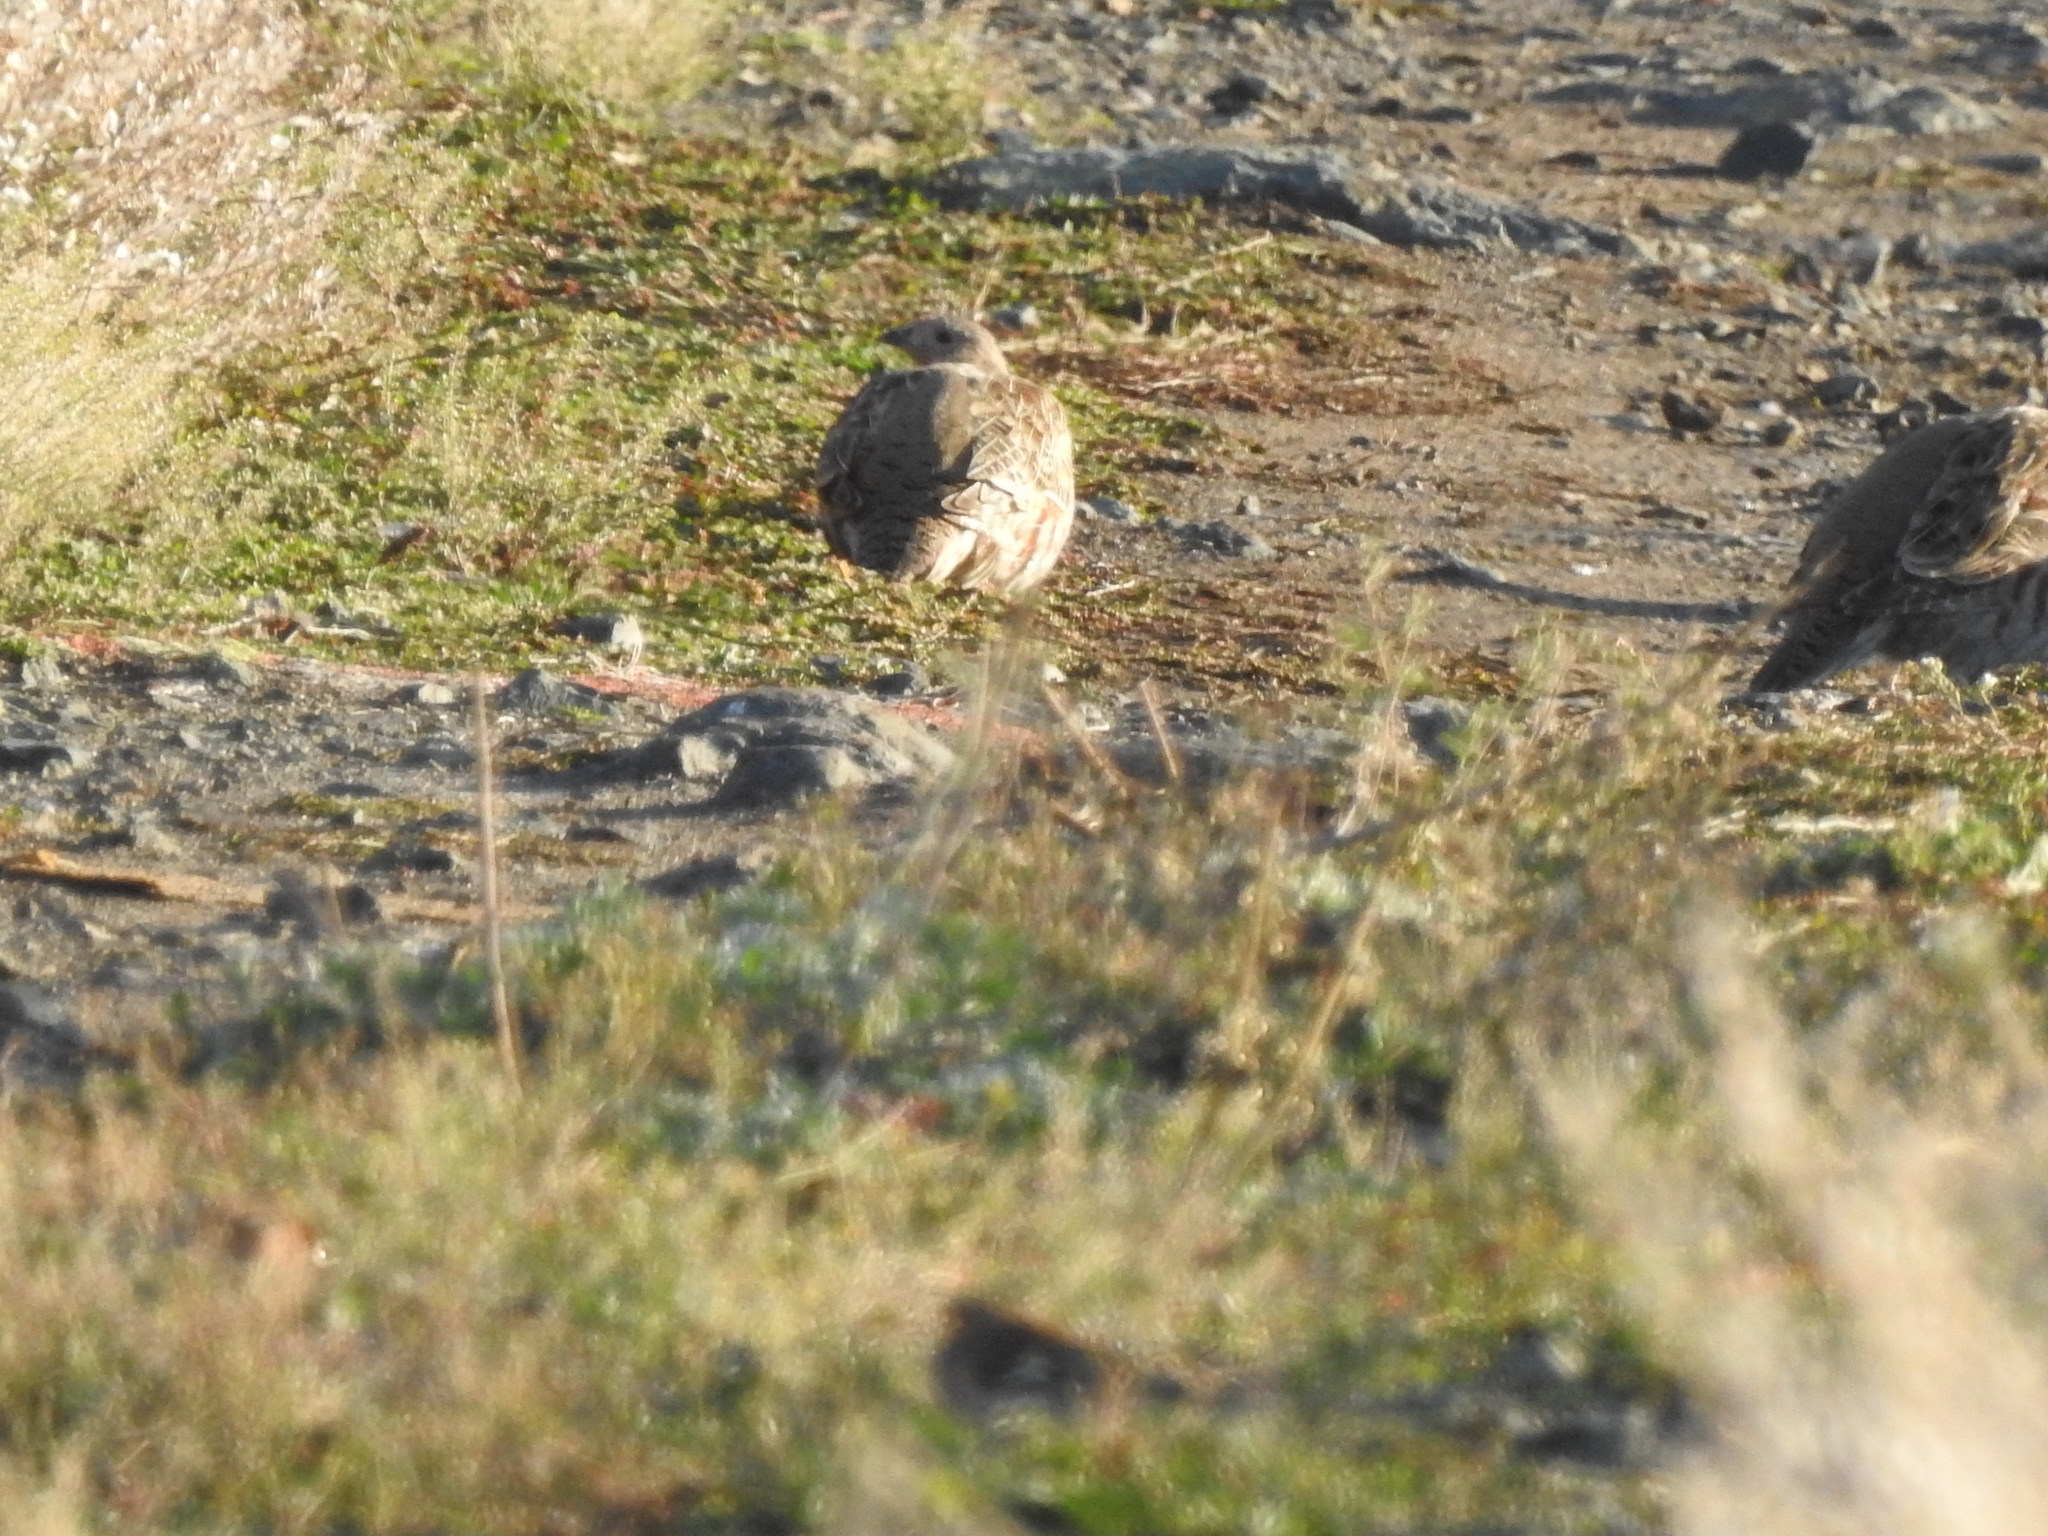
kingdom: Animalia
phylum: Chordata
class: Aves
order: Galliformes
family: Phasianidae
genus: Perdix
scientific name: Perdix perdix
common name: Grey partridge
